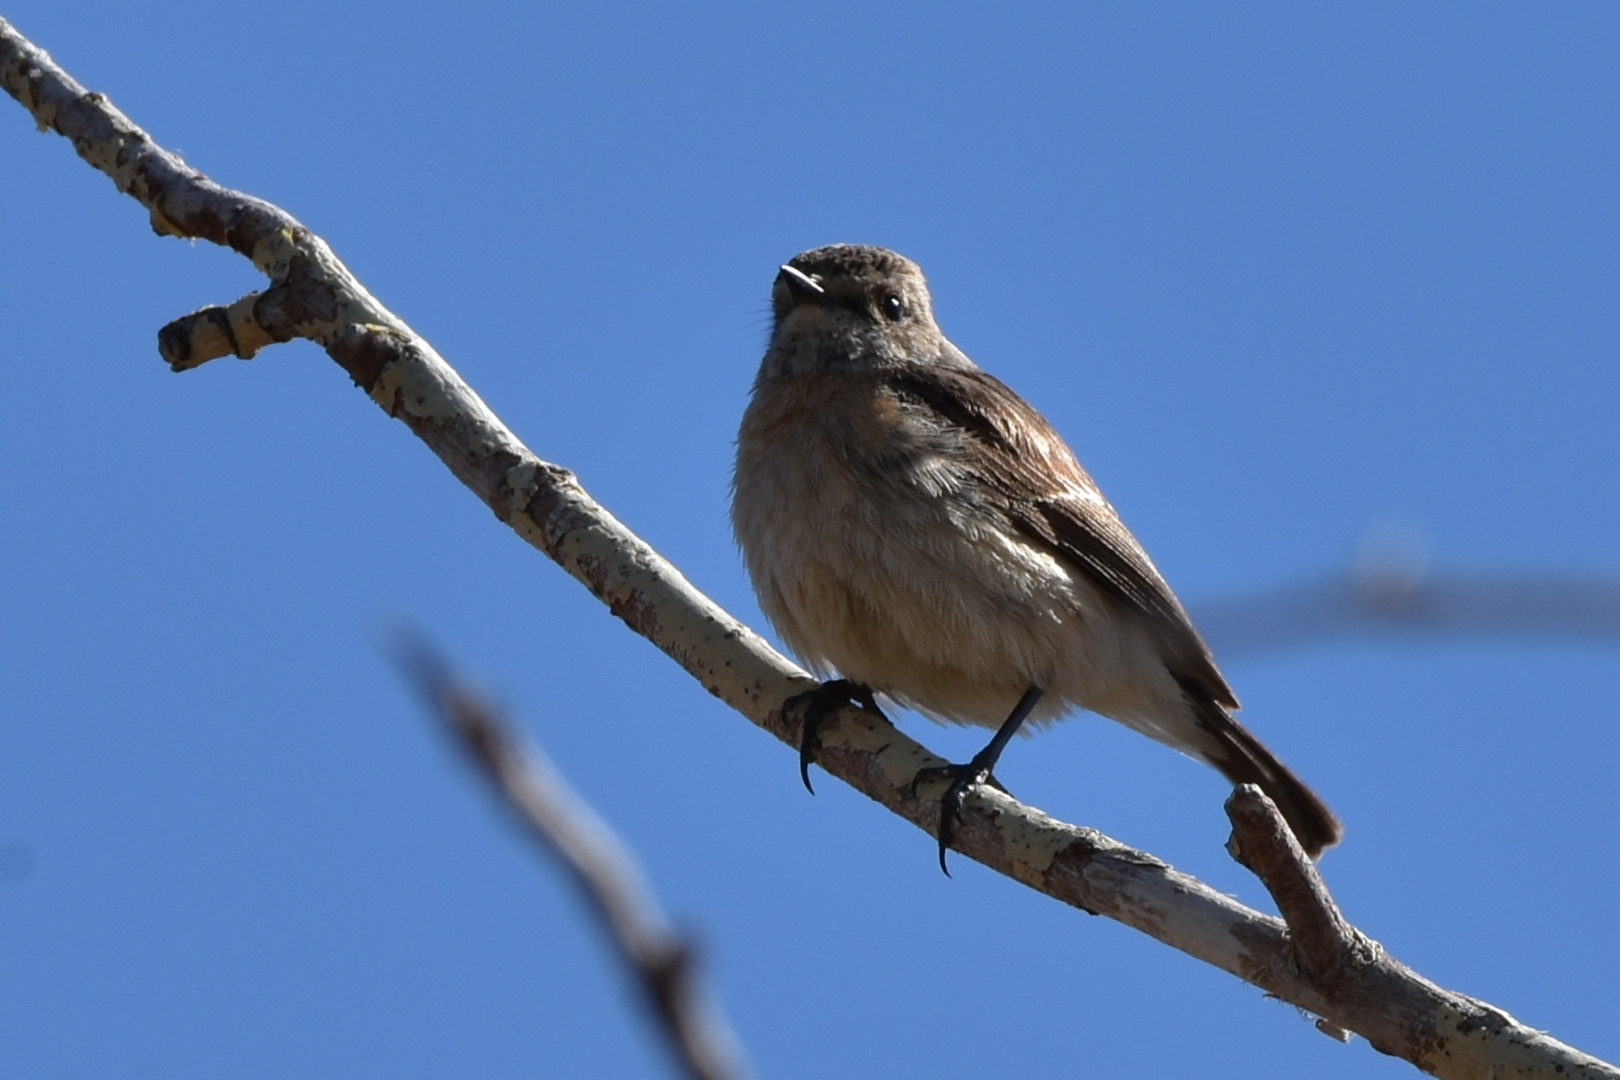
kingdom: Animalia
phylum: Chordata
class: Aves
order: Passeriformes
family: Muscicapidae
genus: Saxicola
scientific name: Saxicola maurus
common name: Siberian stonechat
